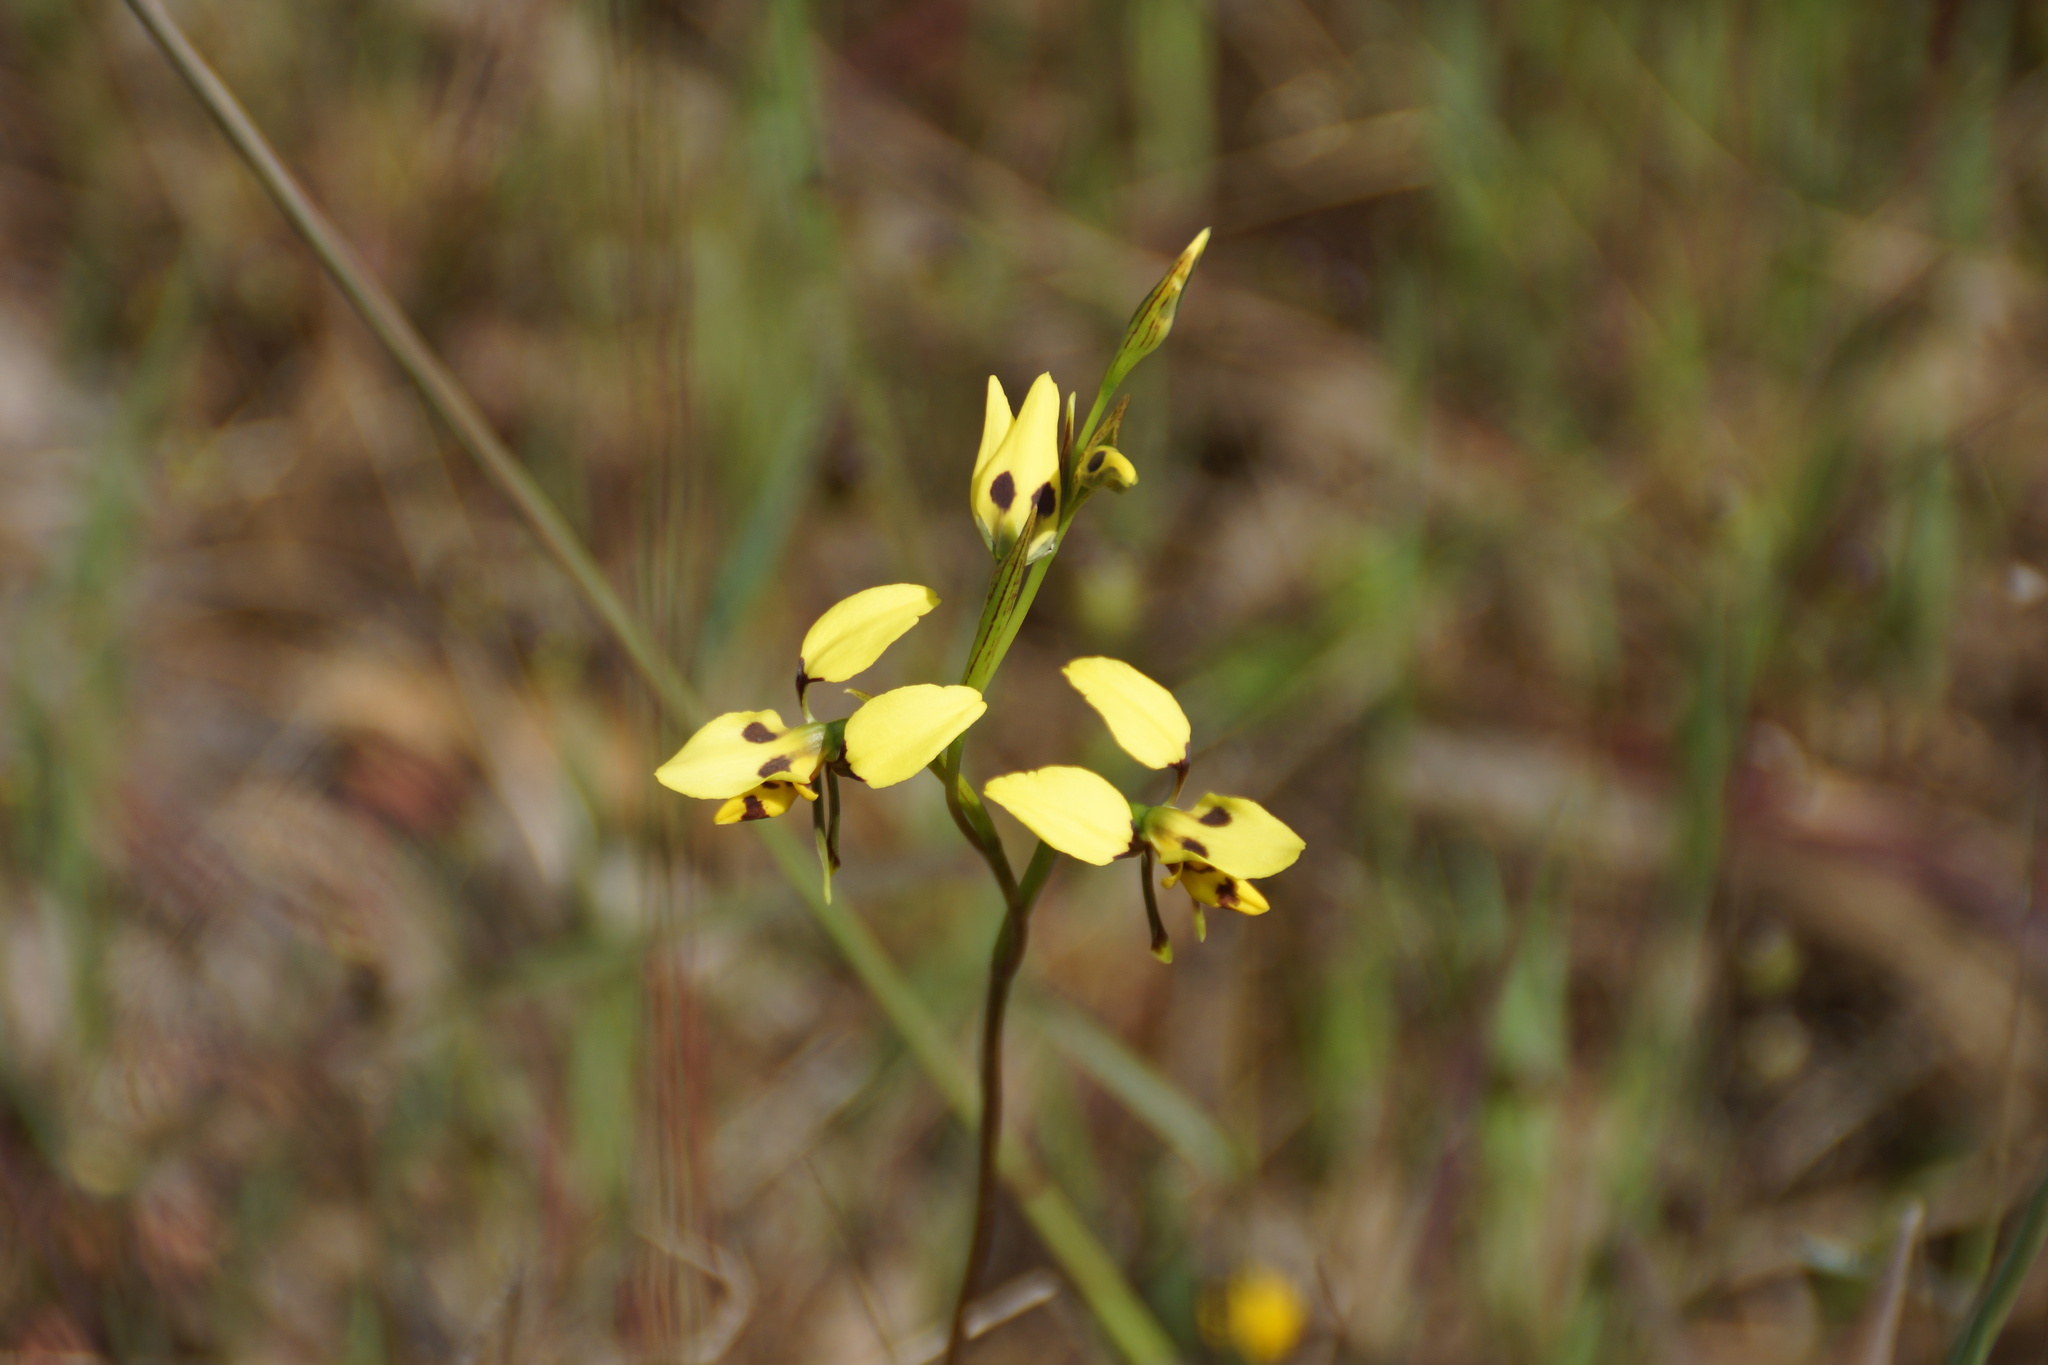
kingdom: Plantae
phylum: Tracheophyta
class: Liliopsida
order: Asparagales
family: Orchidaceae
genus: Diuris
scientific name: Diuris sulphurea
